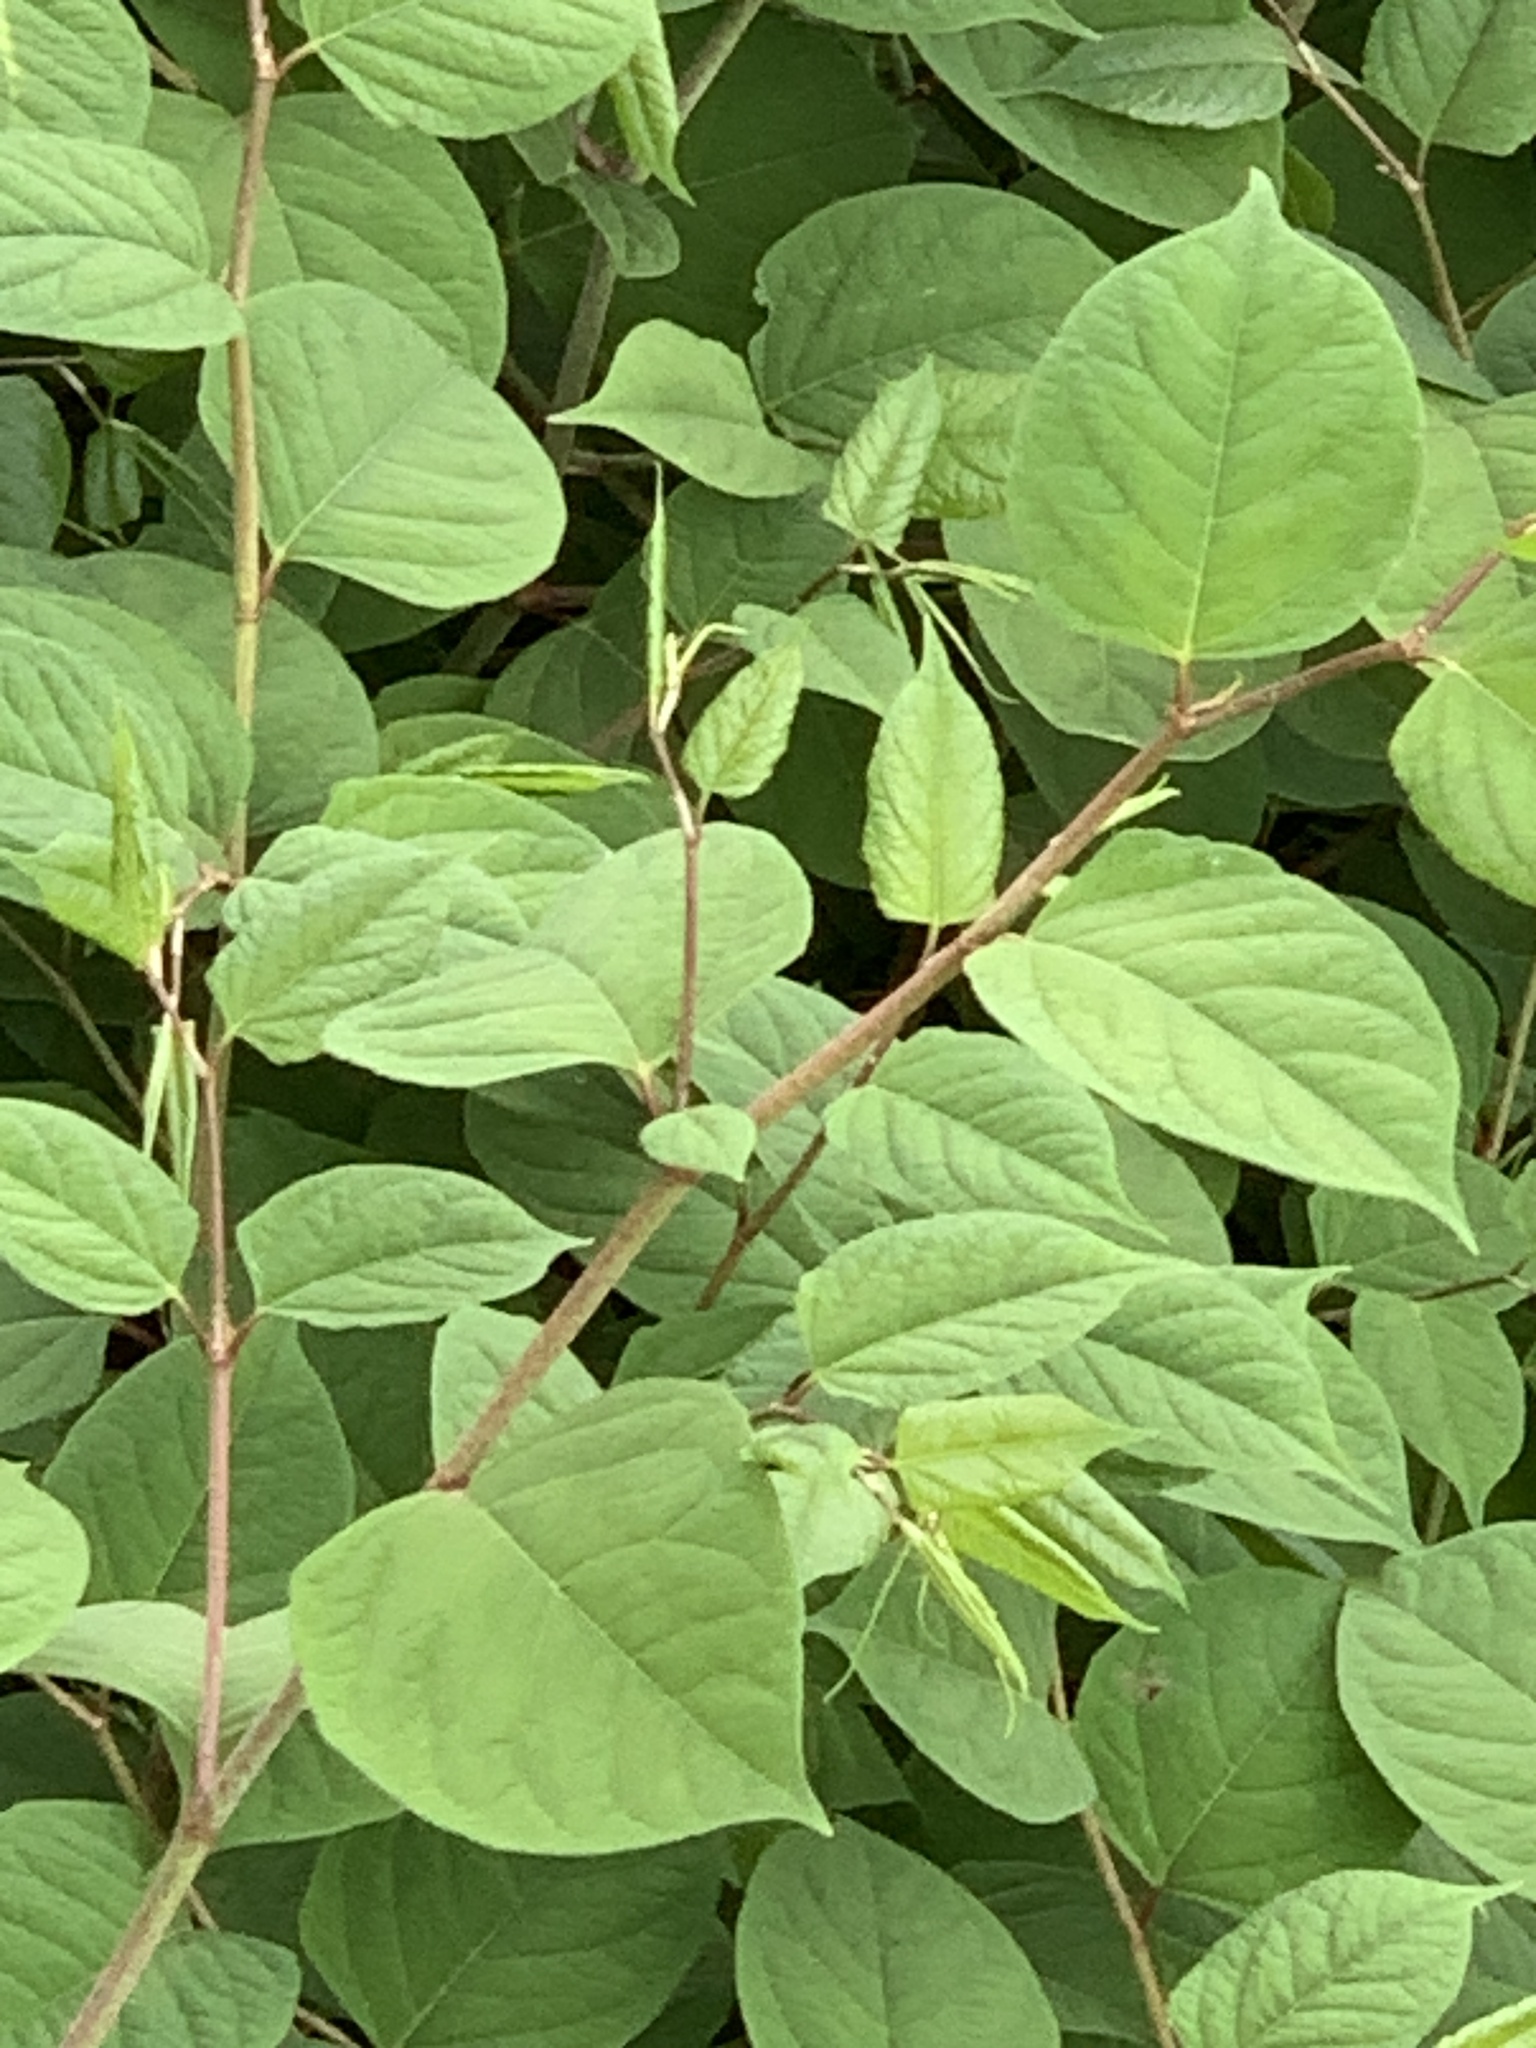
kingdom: Plantae
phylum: Tracheophyta
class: Magnoliopsida
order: Caryophyllales
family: Polygonaceae
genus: Reynoutria
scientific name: Reynoutria japonica
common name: Japanese knotweed
